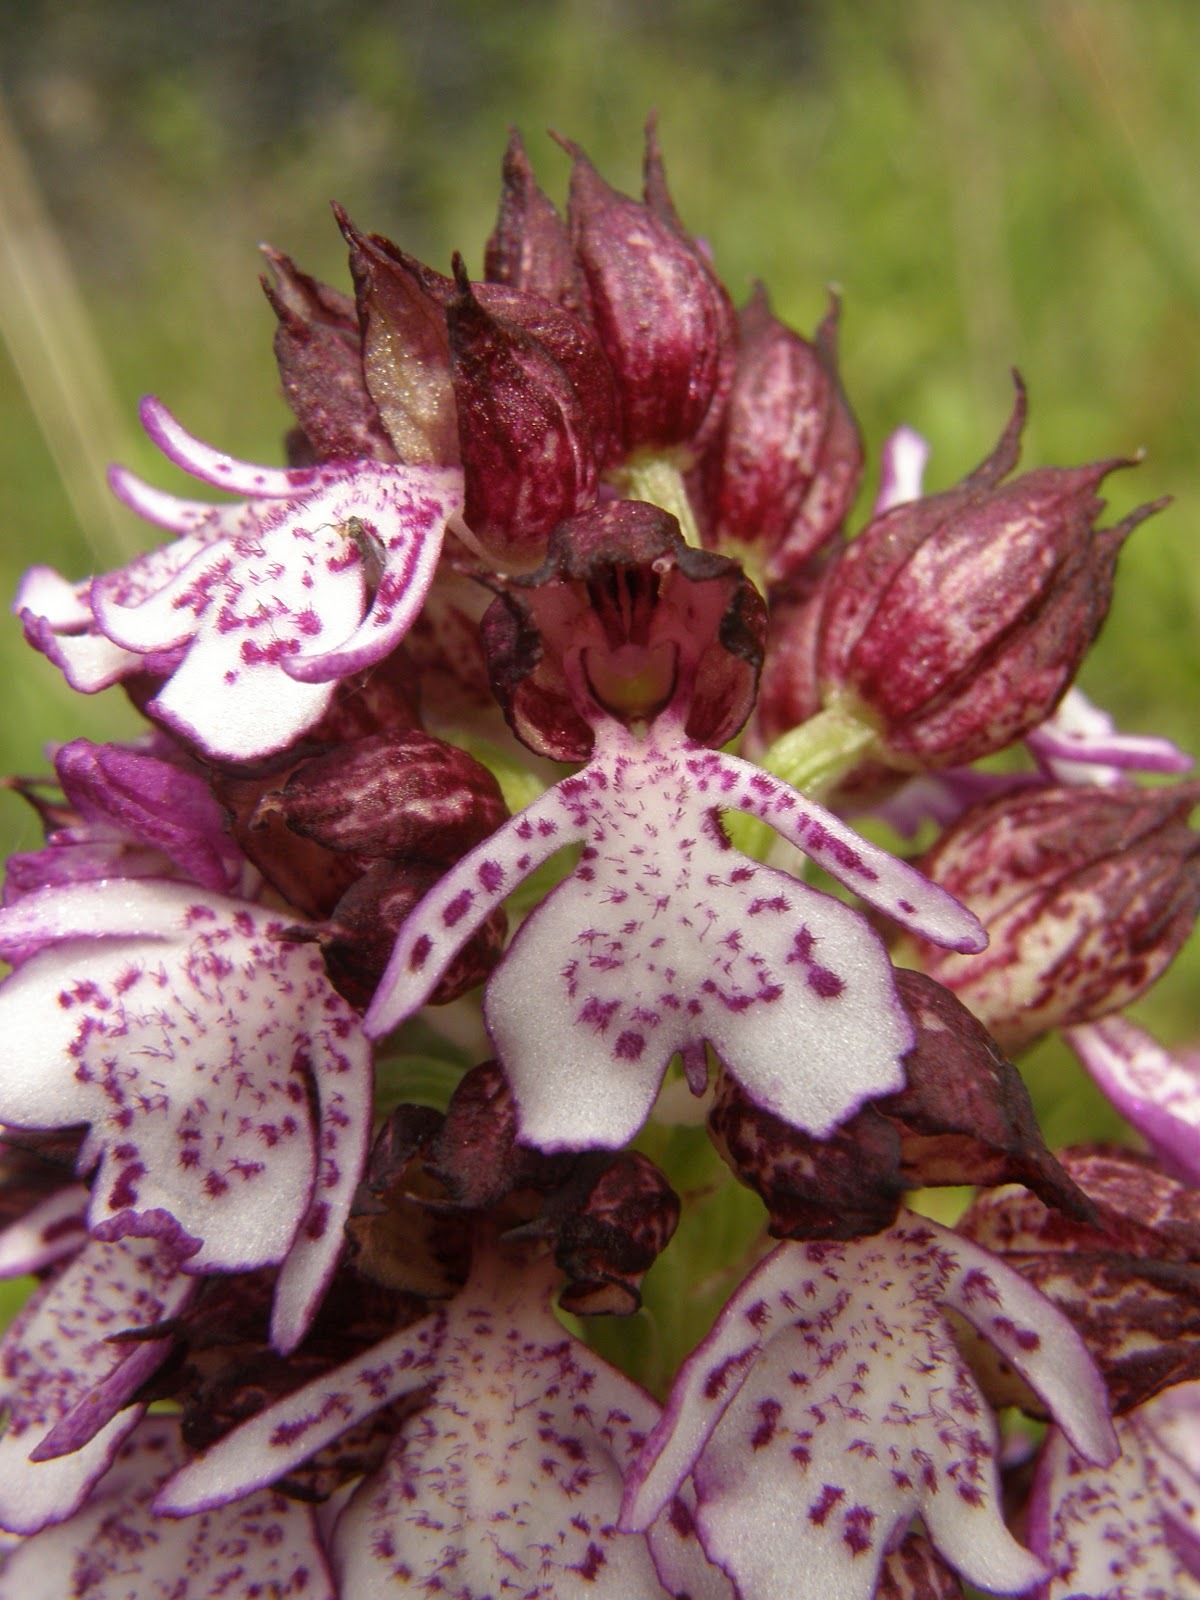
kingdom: Plantae
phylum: Tracheophyta
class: Liliopsida
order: Asparagales
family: Orchidaceae
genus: Orchis
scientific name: Orchis purpurea
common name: Lady orchid
